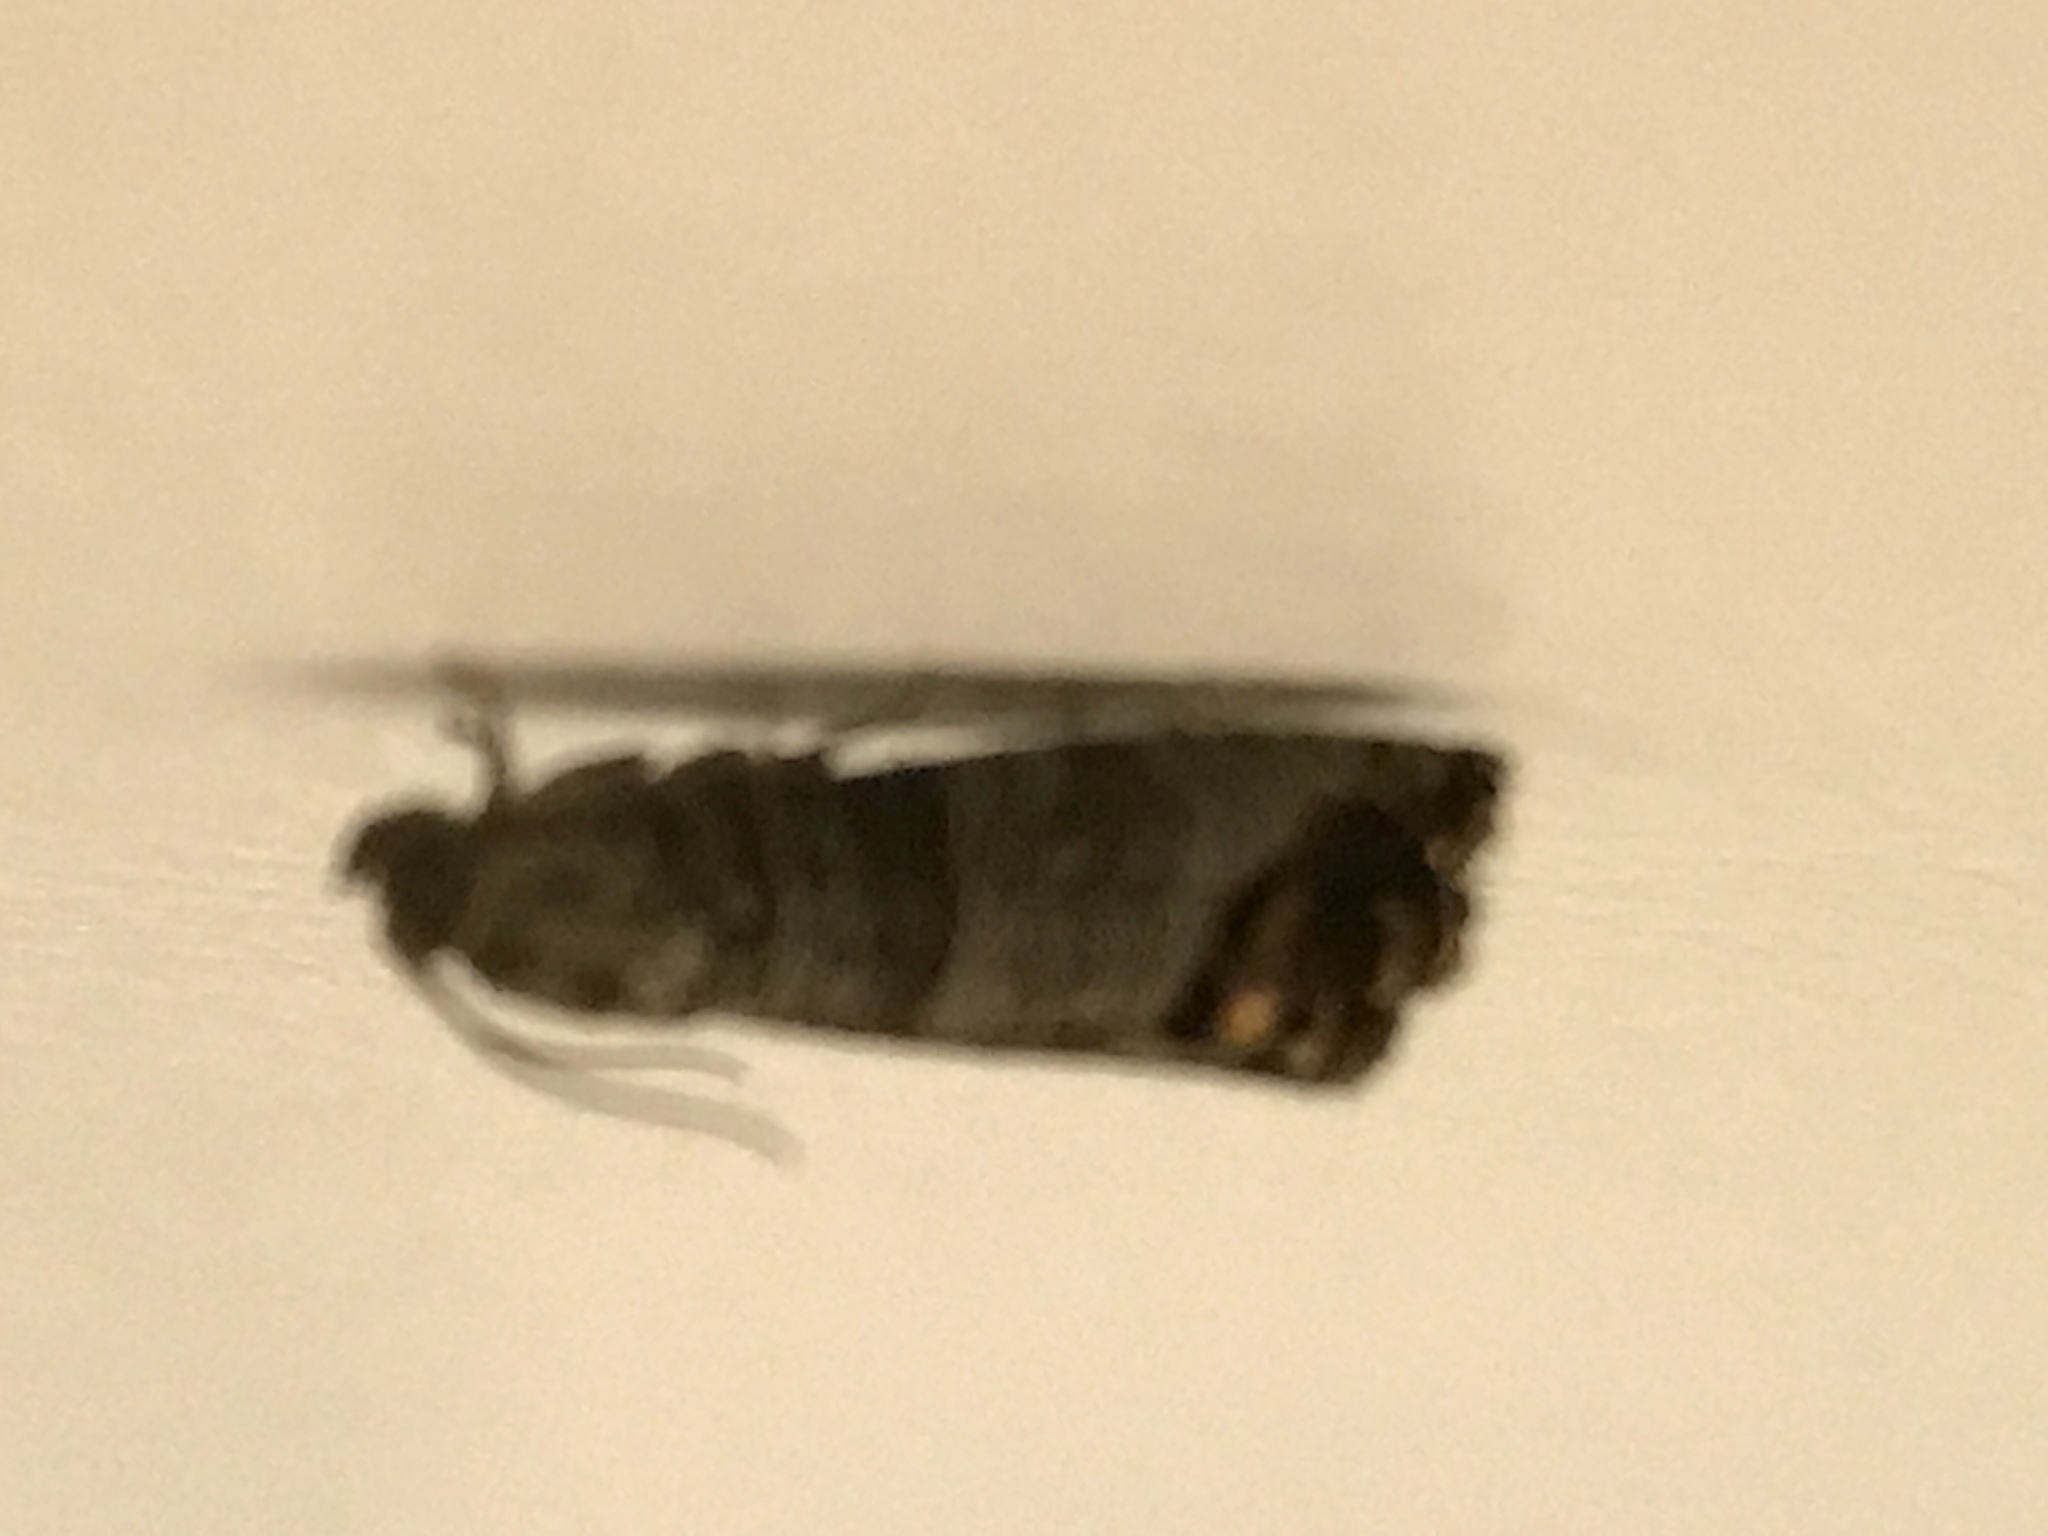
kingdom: Animalia
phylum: Arthropoda
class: Insecta
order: Lepidoptera
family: Tortricidae
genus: Cydia
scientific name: Cydia pomonella
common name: Codling moth
